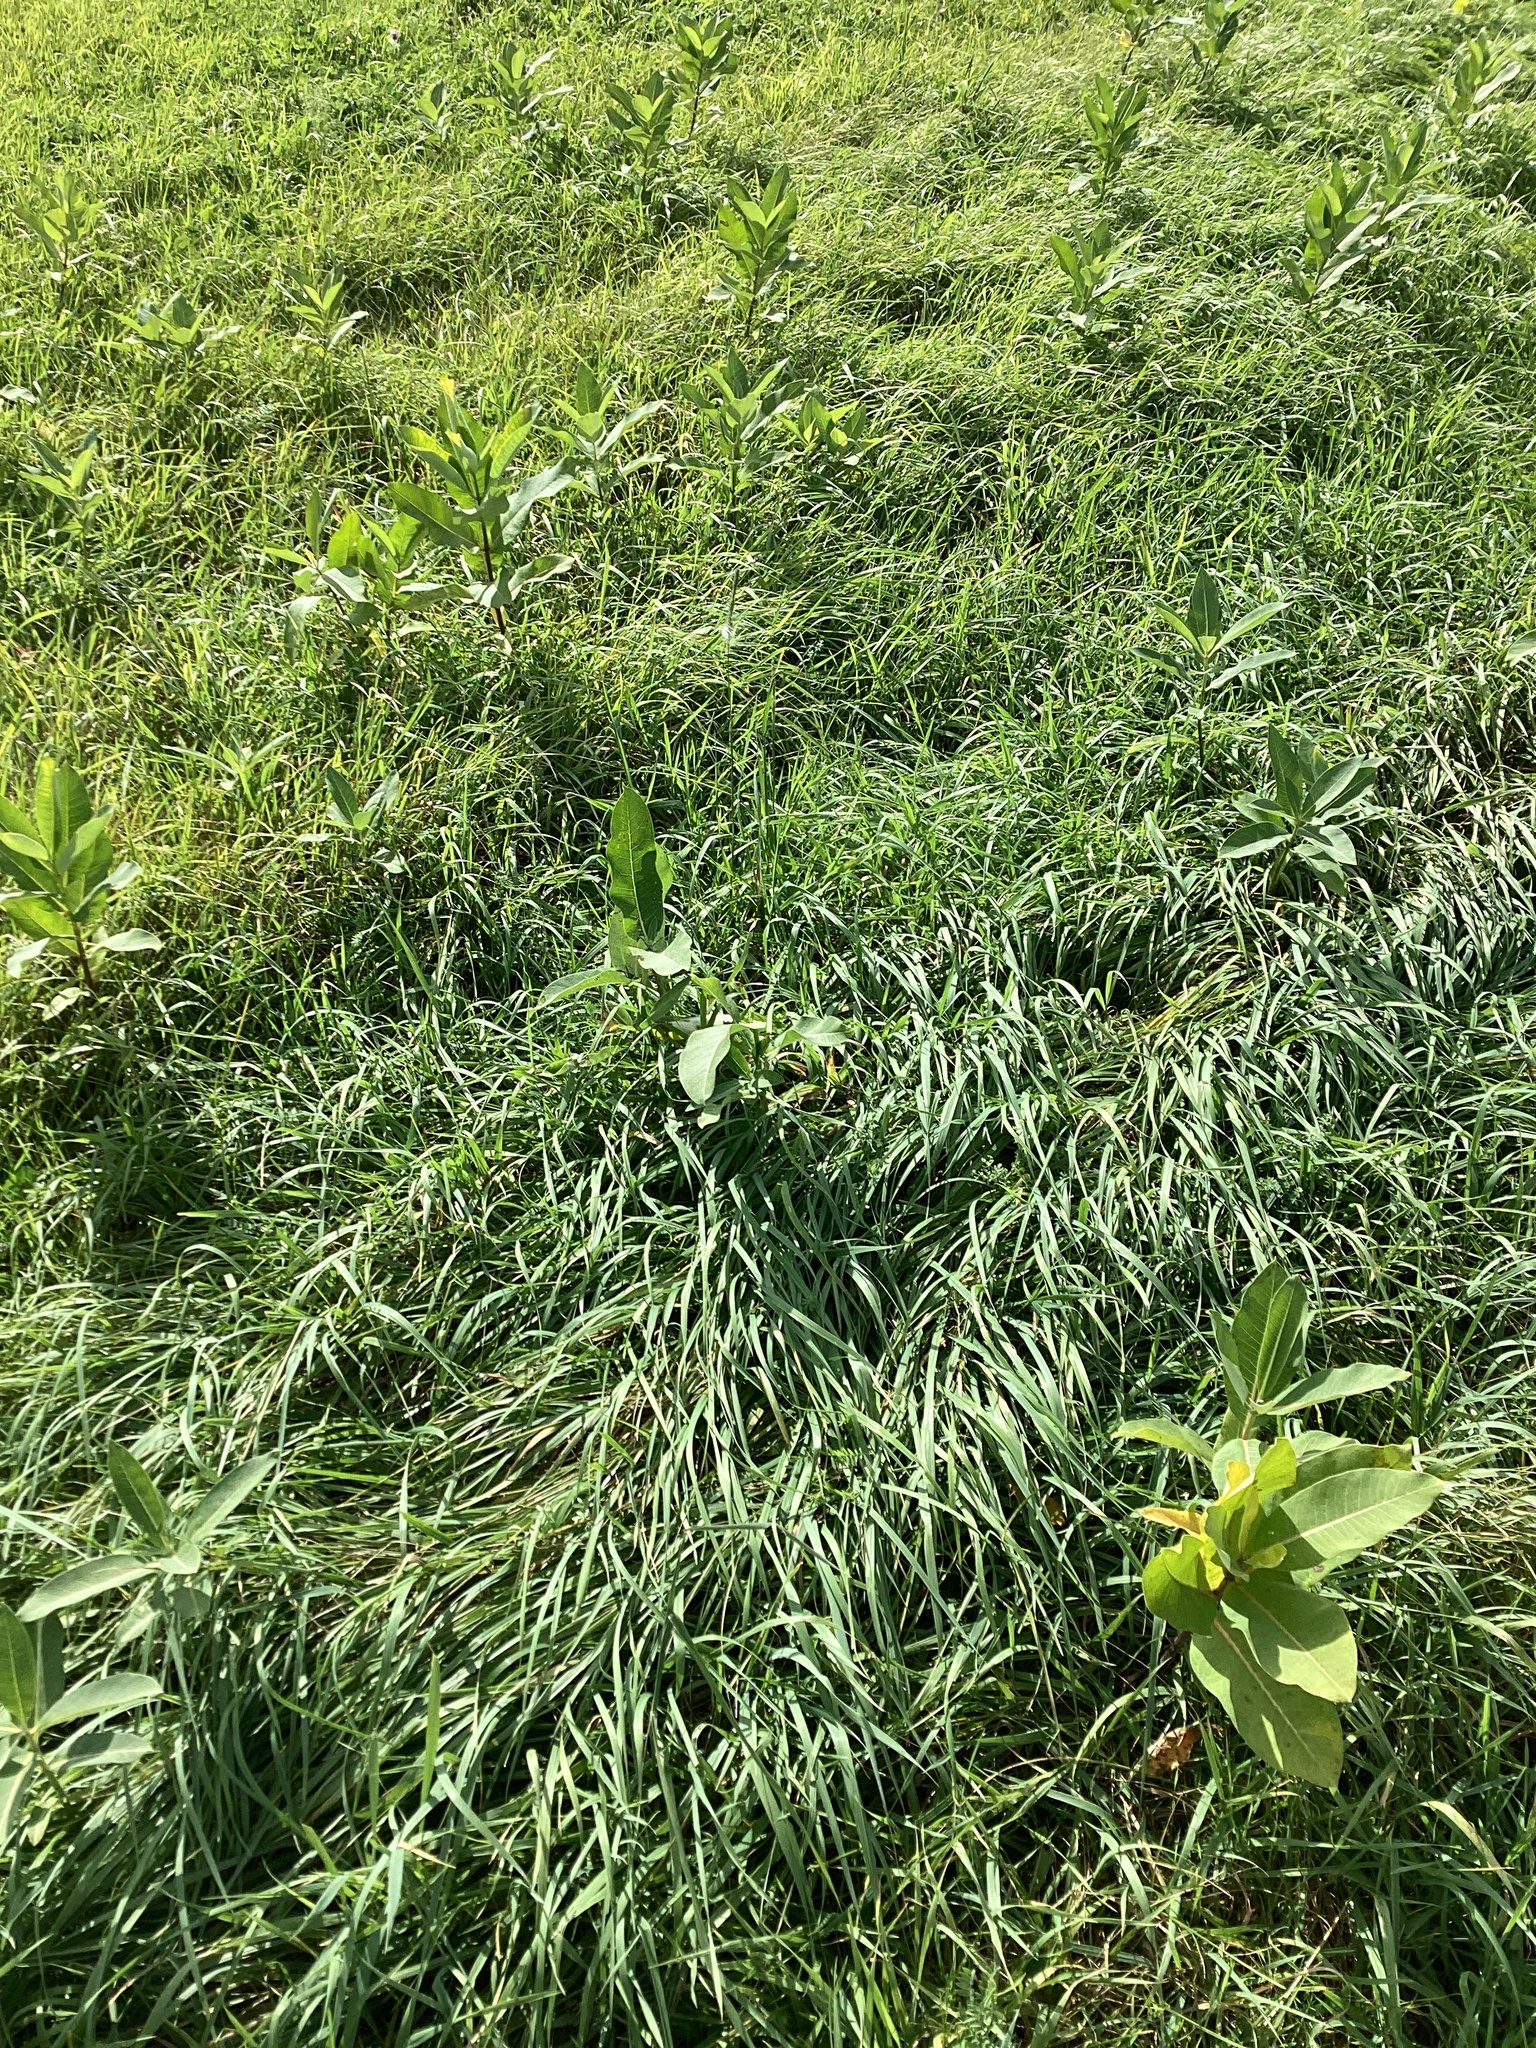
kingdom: Plantae
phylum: Tracheophyta
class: Magnoliopsida
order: Gentianales
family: Apocynaceae
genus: Asclepias
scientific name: Asclepias syriaca
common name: Common milkweed
